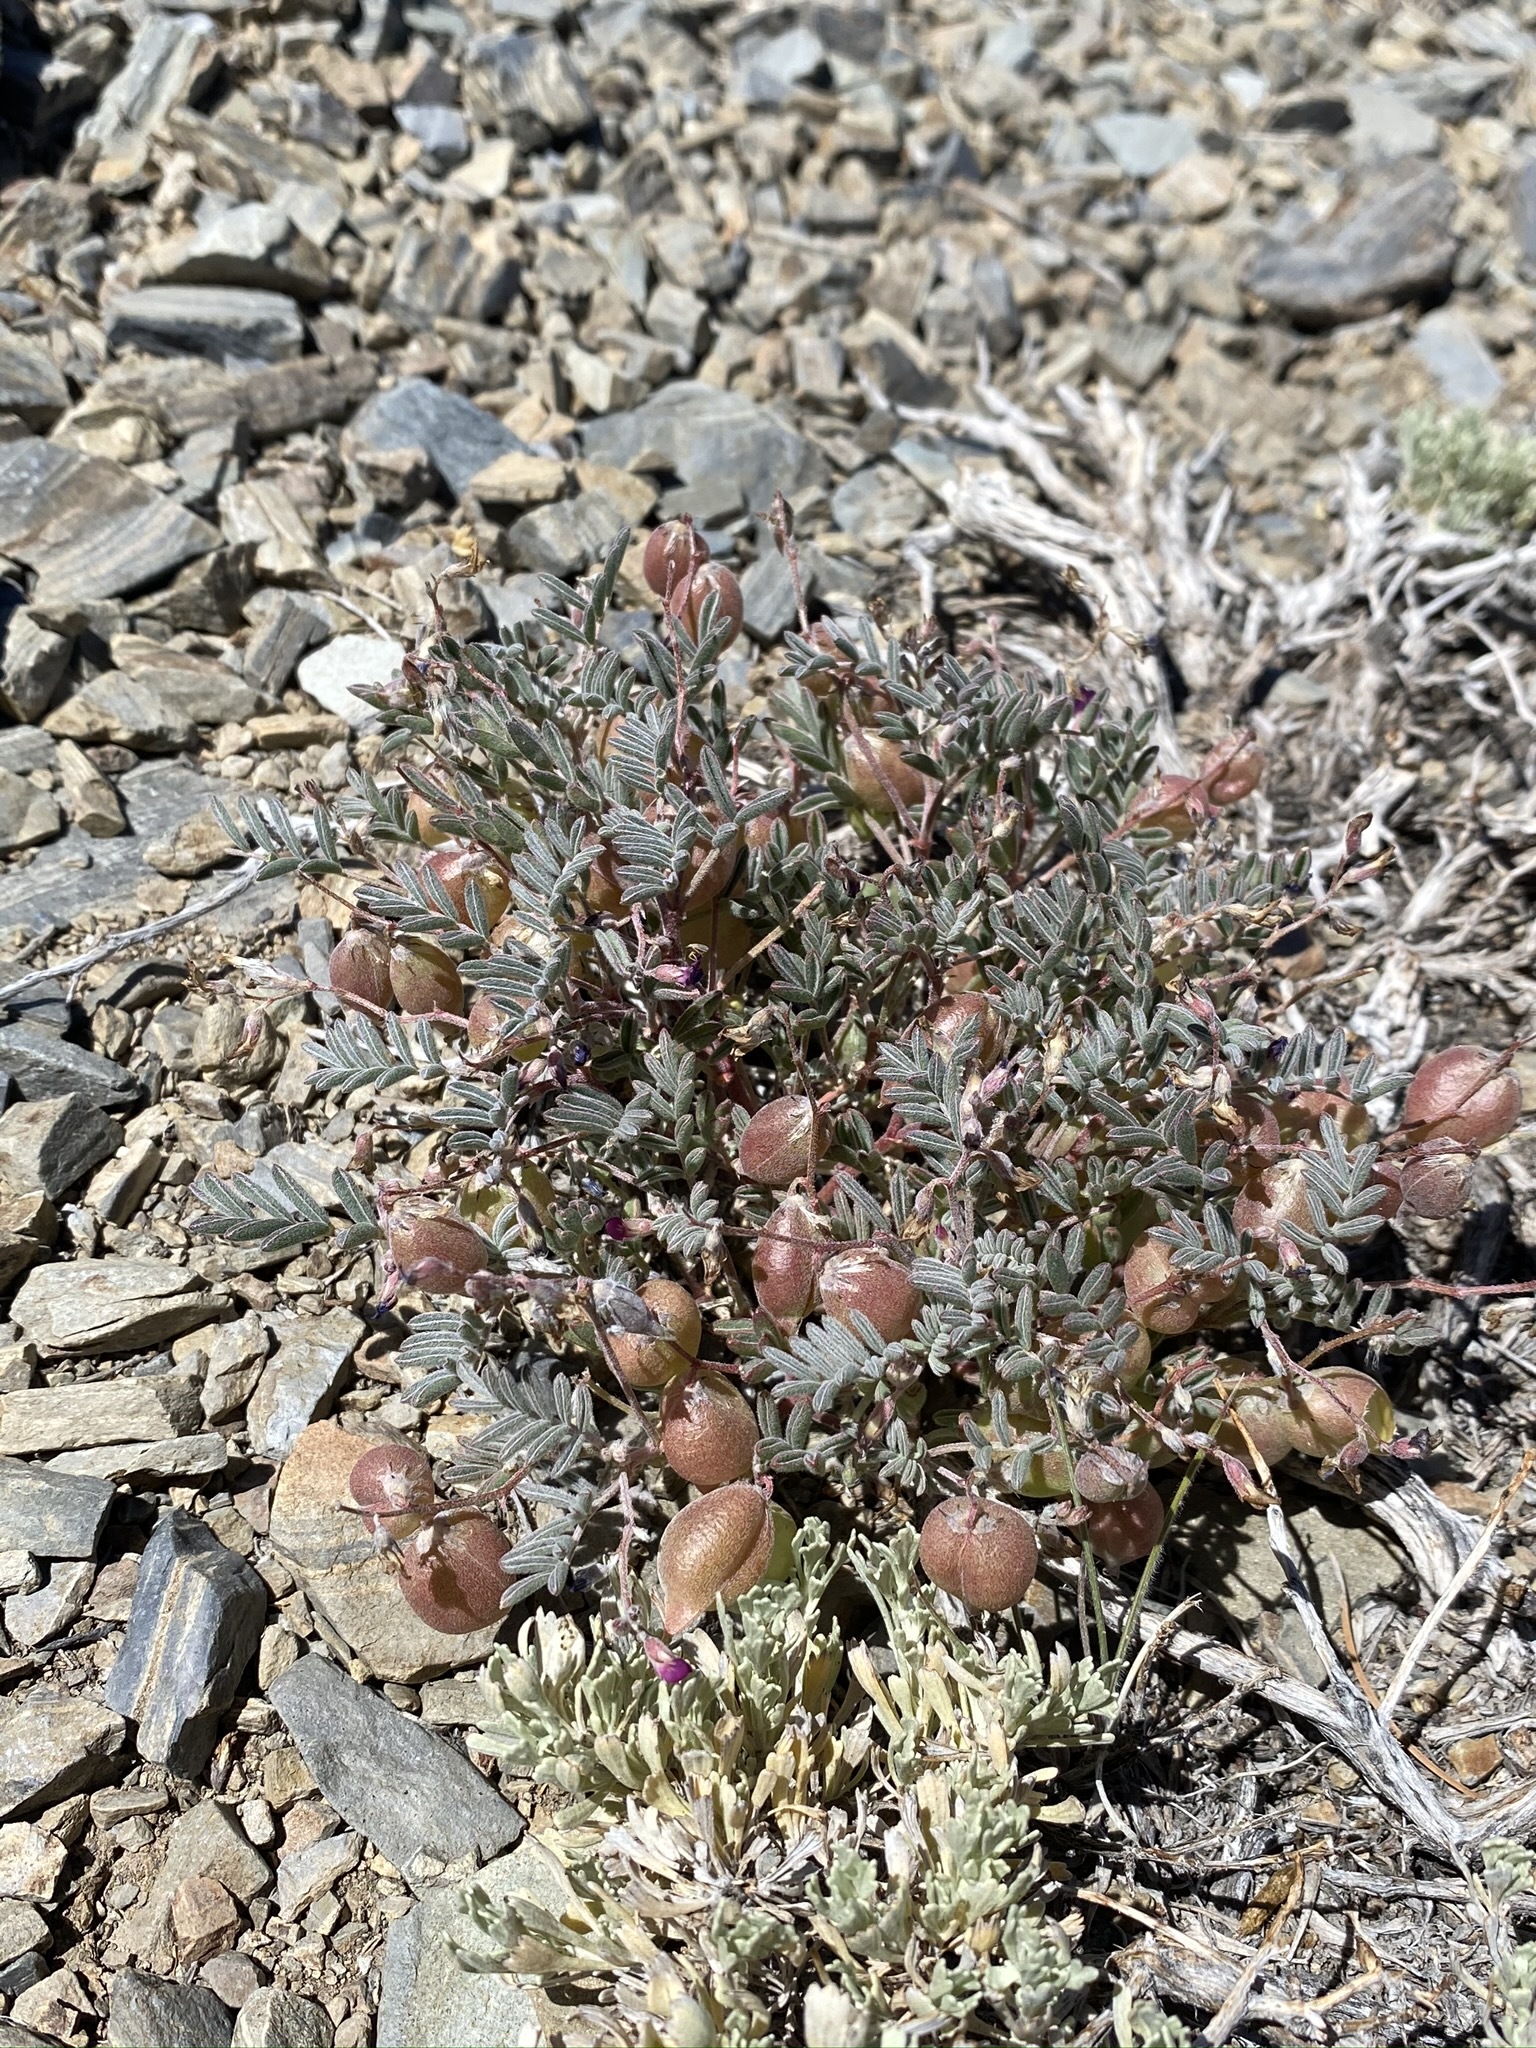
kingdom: Plantae
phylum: Tracheophyta
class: Magnoliopsida
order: Fabales
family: Fabaceae
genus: Astragalus
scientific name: Astragalus gilmanii
